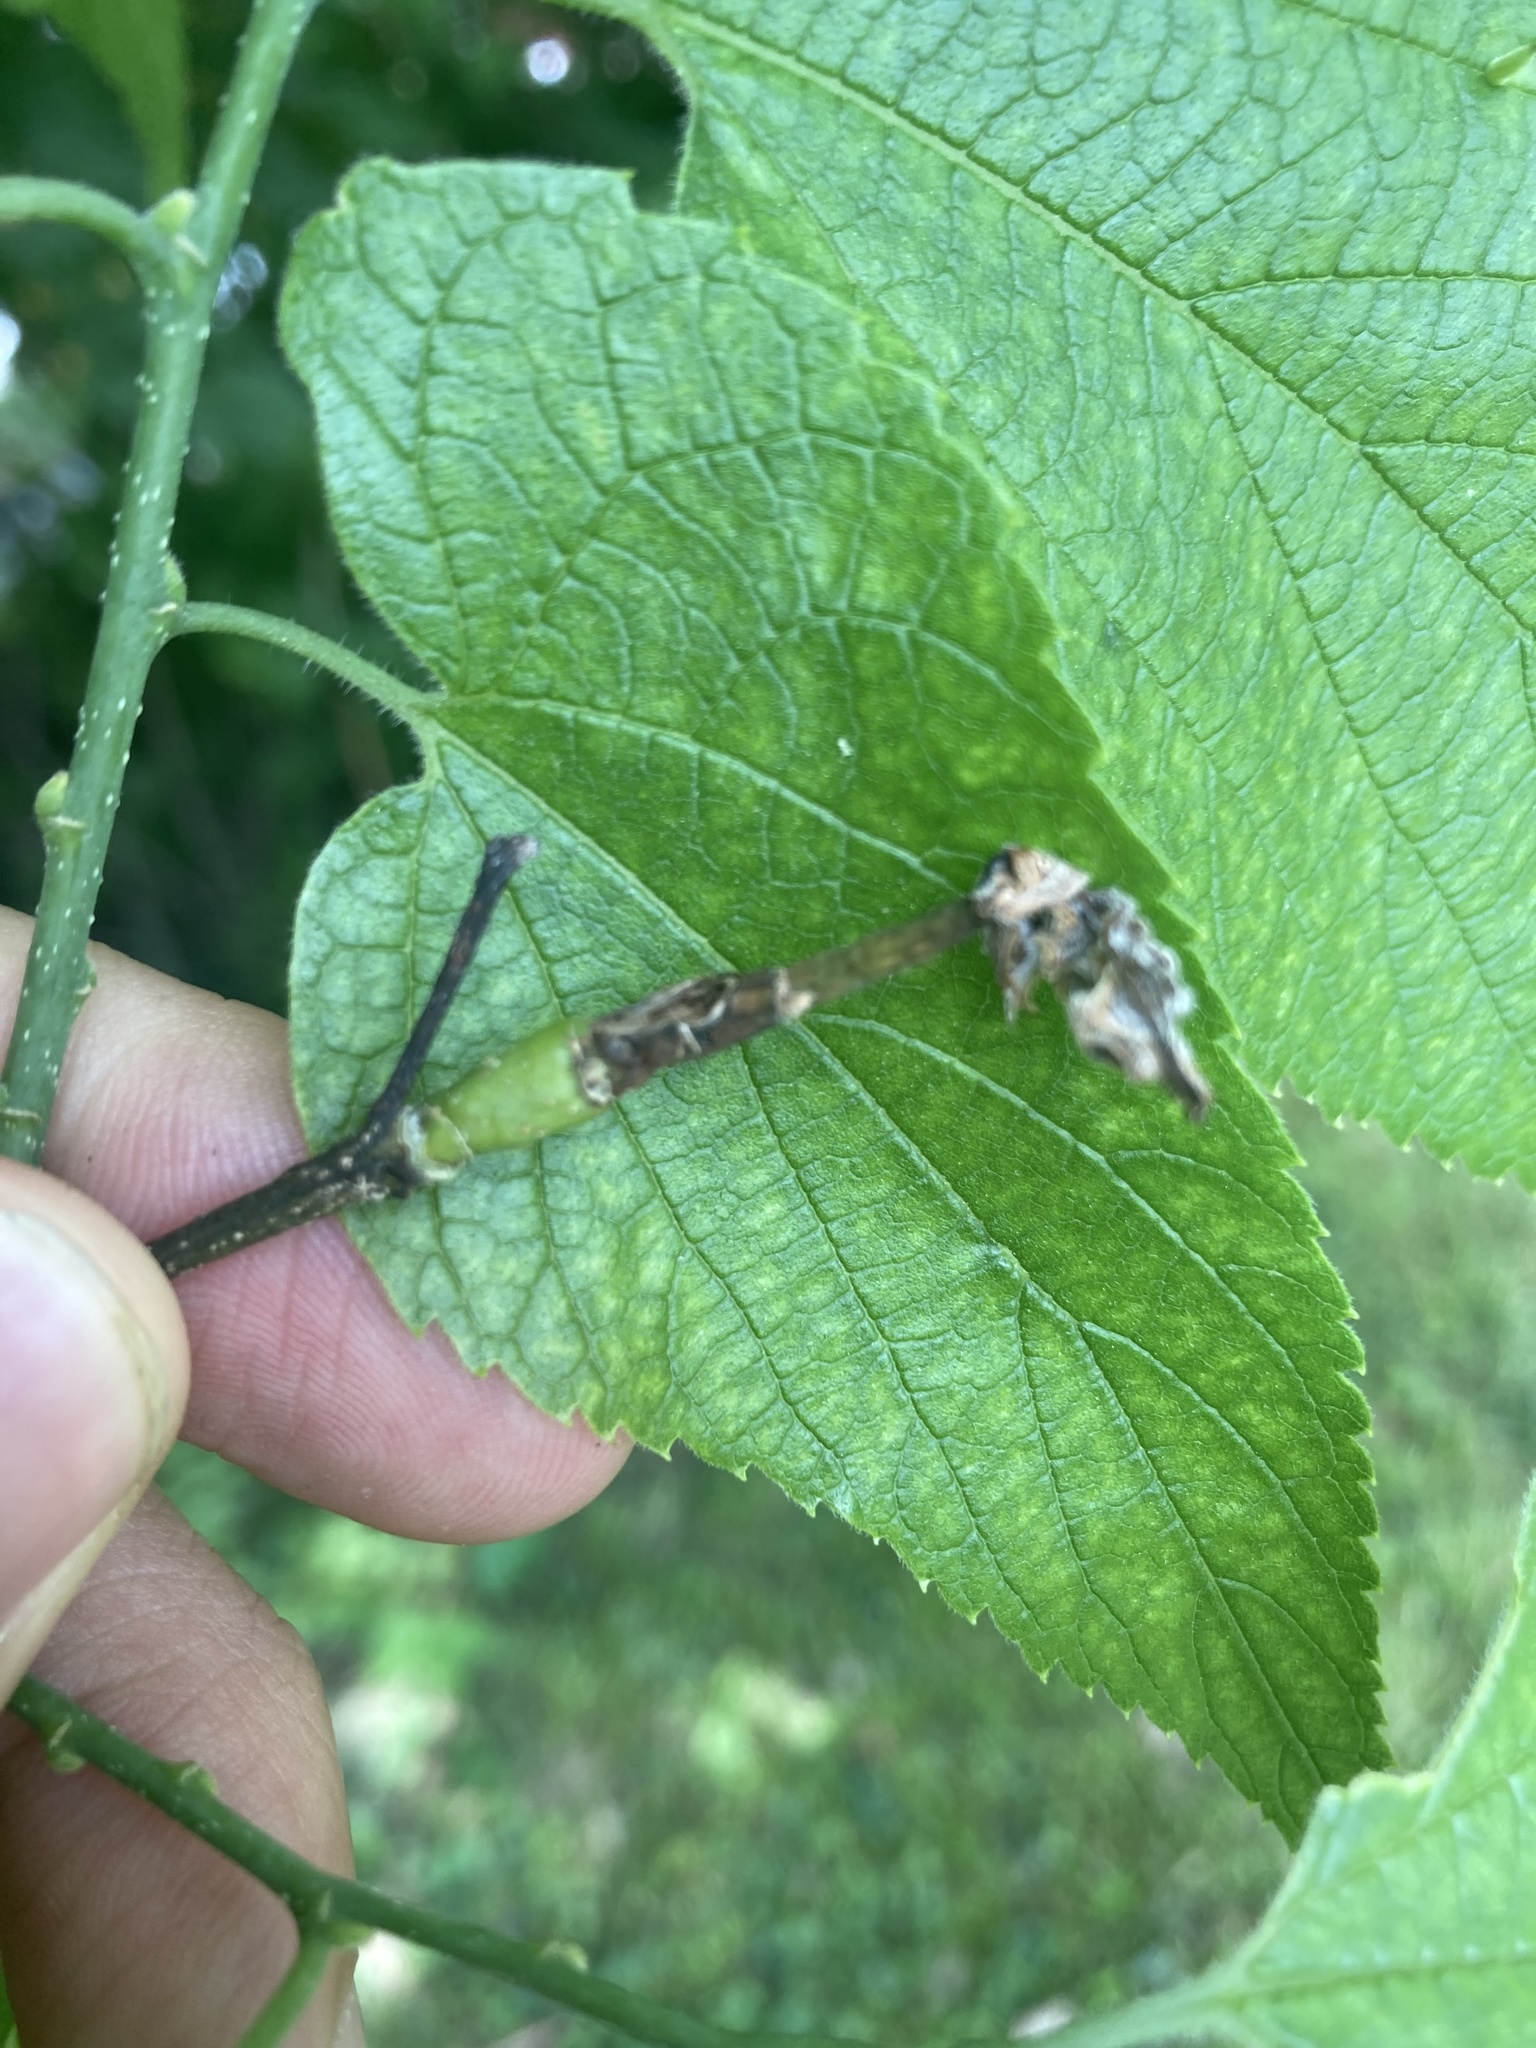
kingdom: Animalia
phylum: Arthropoda
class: Insecta
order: Diptera
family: Agromyzidae
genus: Agromyza
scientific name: Agromyza deserta
